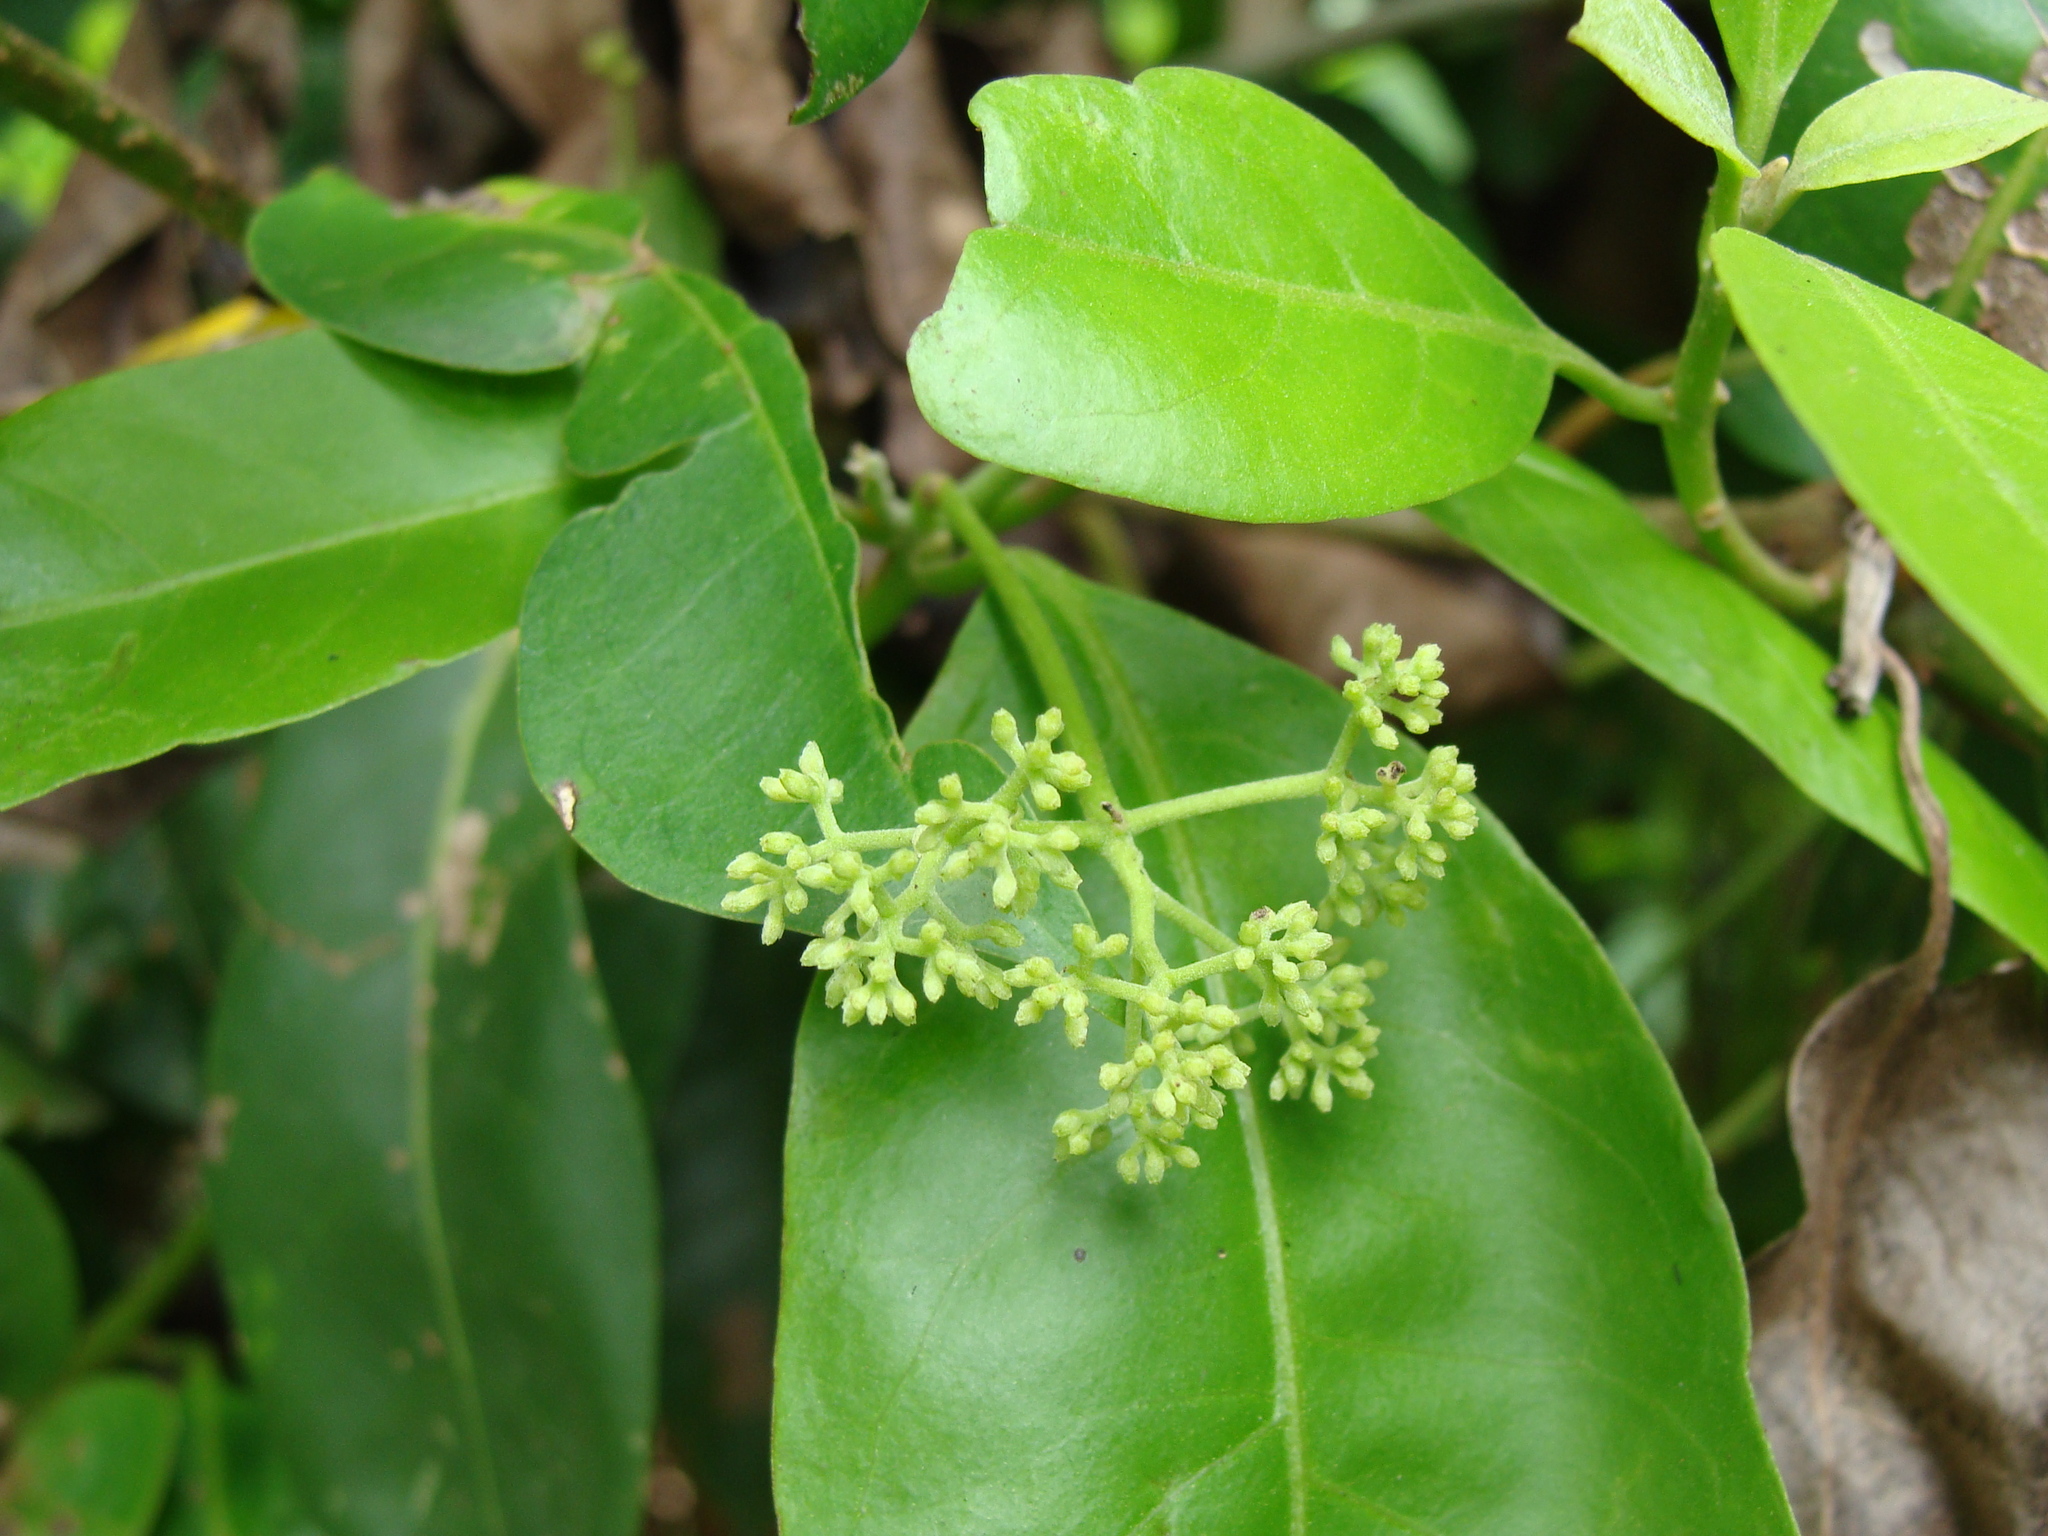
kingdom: Plantae
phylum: Tracheophyta
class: Magnoliopsida
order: Caryophyllales
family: Nyctaginaceae
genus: Neea
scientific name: Neea turbinata
